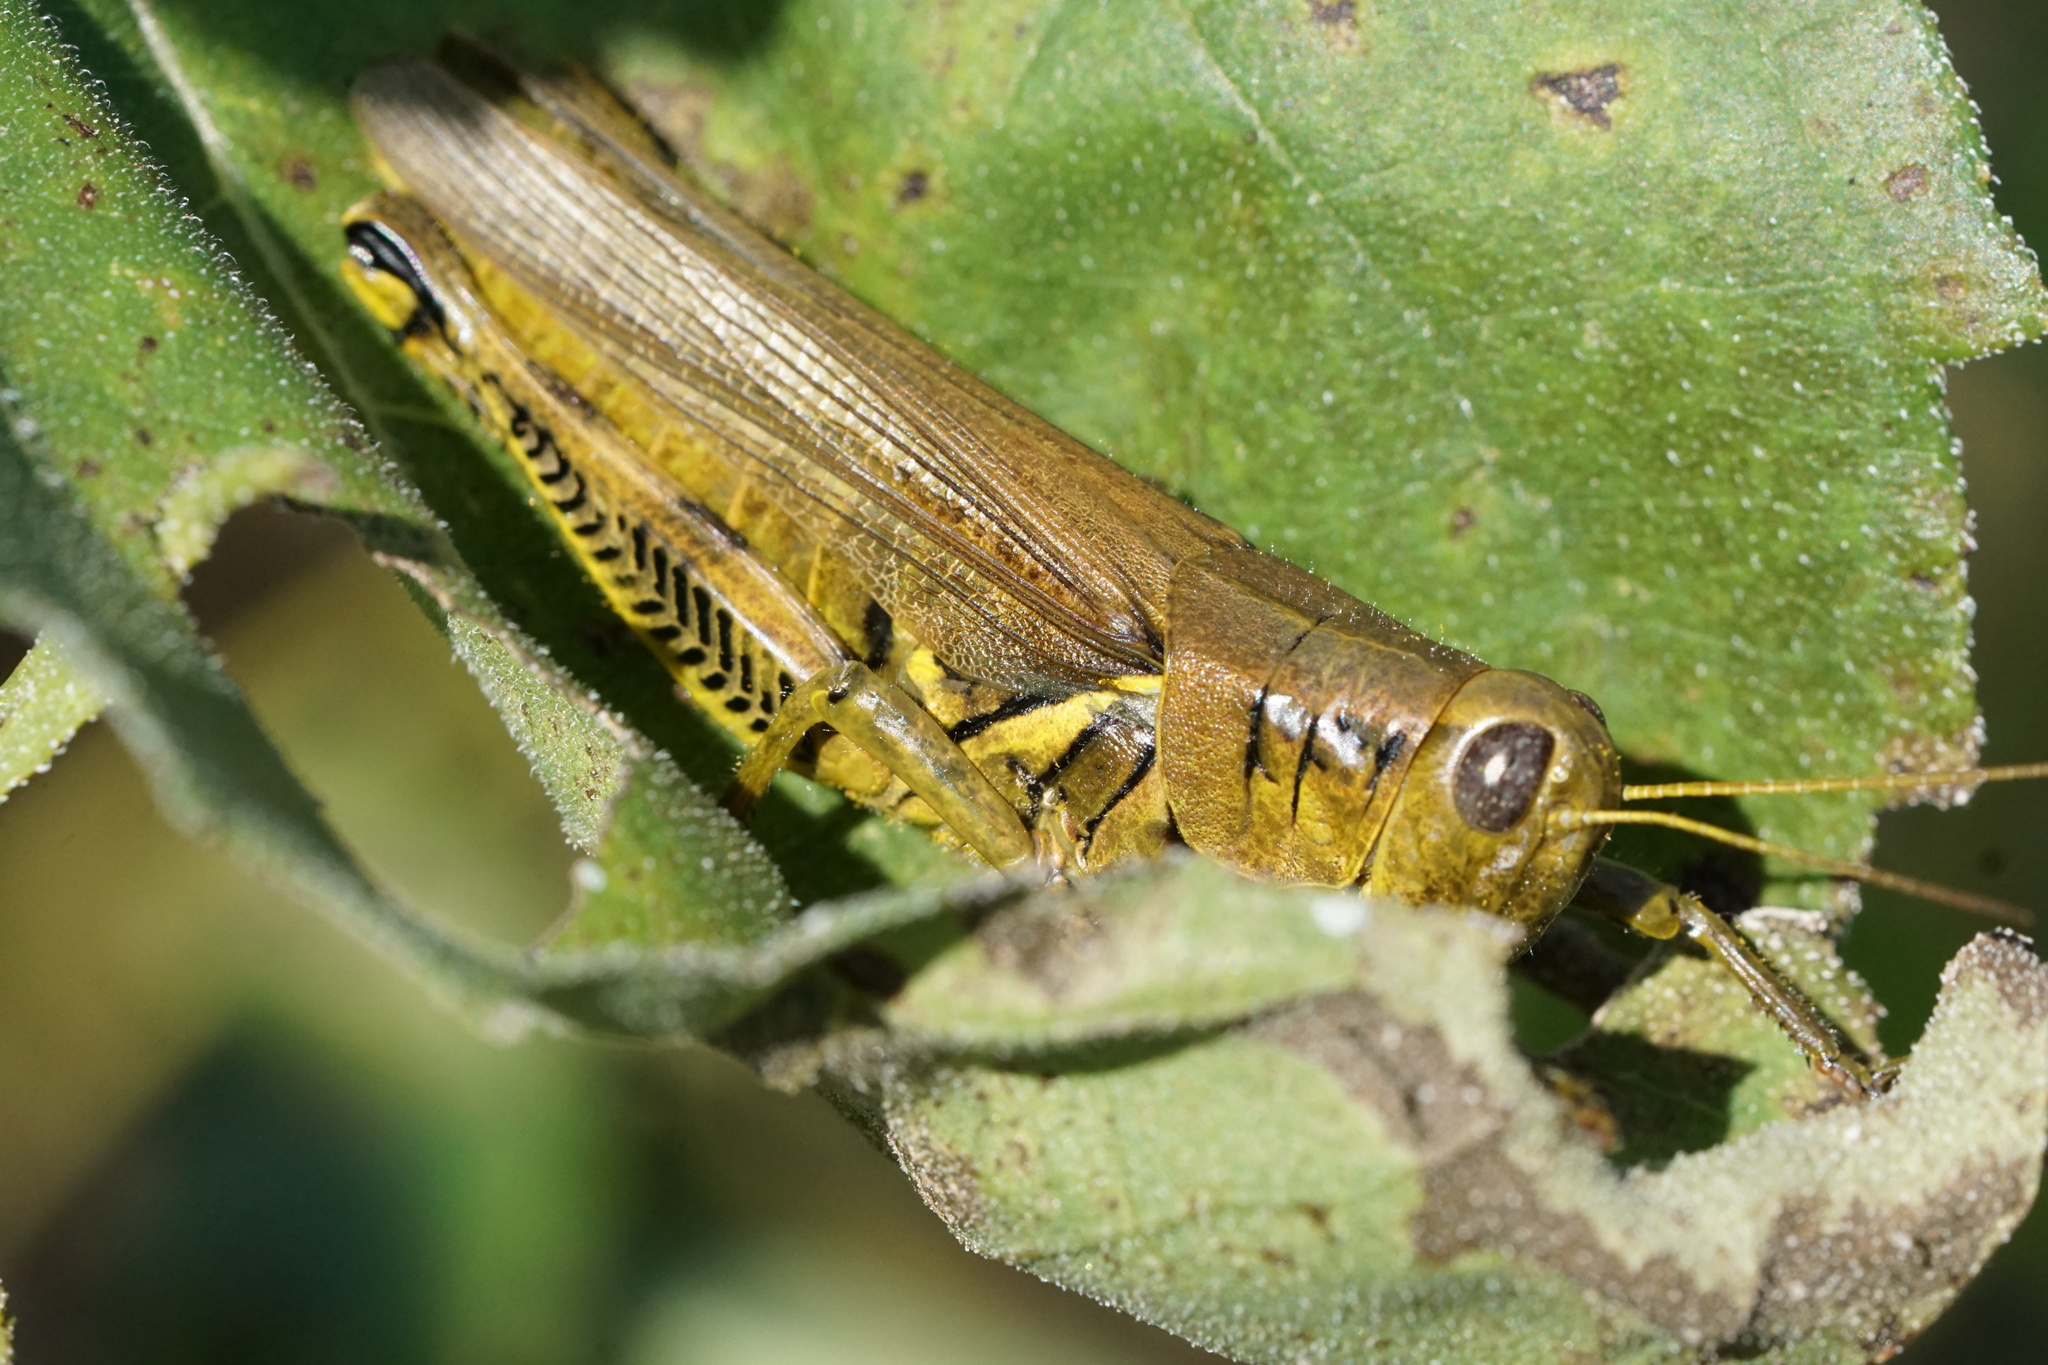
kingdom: Animalia
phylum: Arthropoda
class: Insecta
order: Orthoptera
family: Acrididae
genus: Melanoplus
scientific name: Melanoplus differentialis
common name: Differential grasshopper
